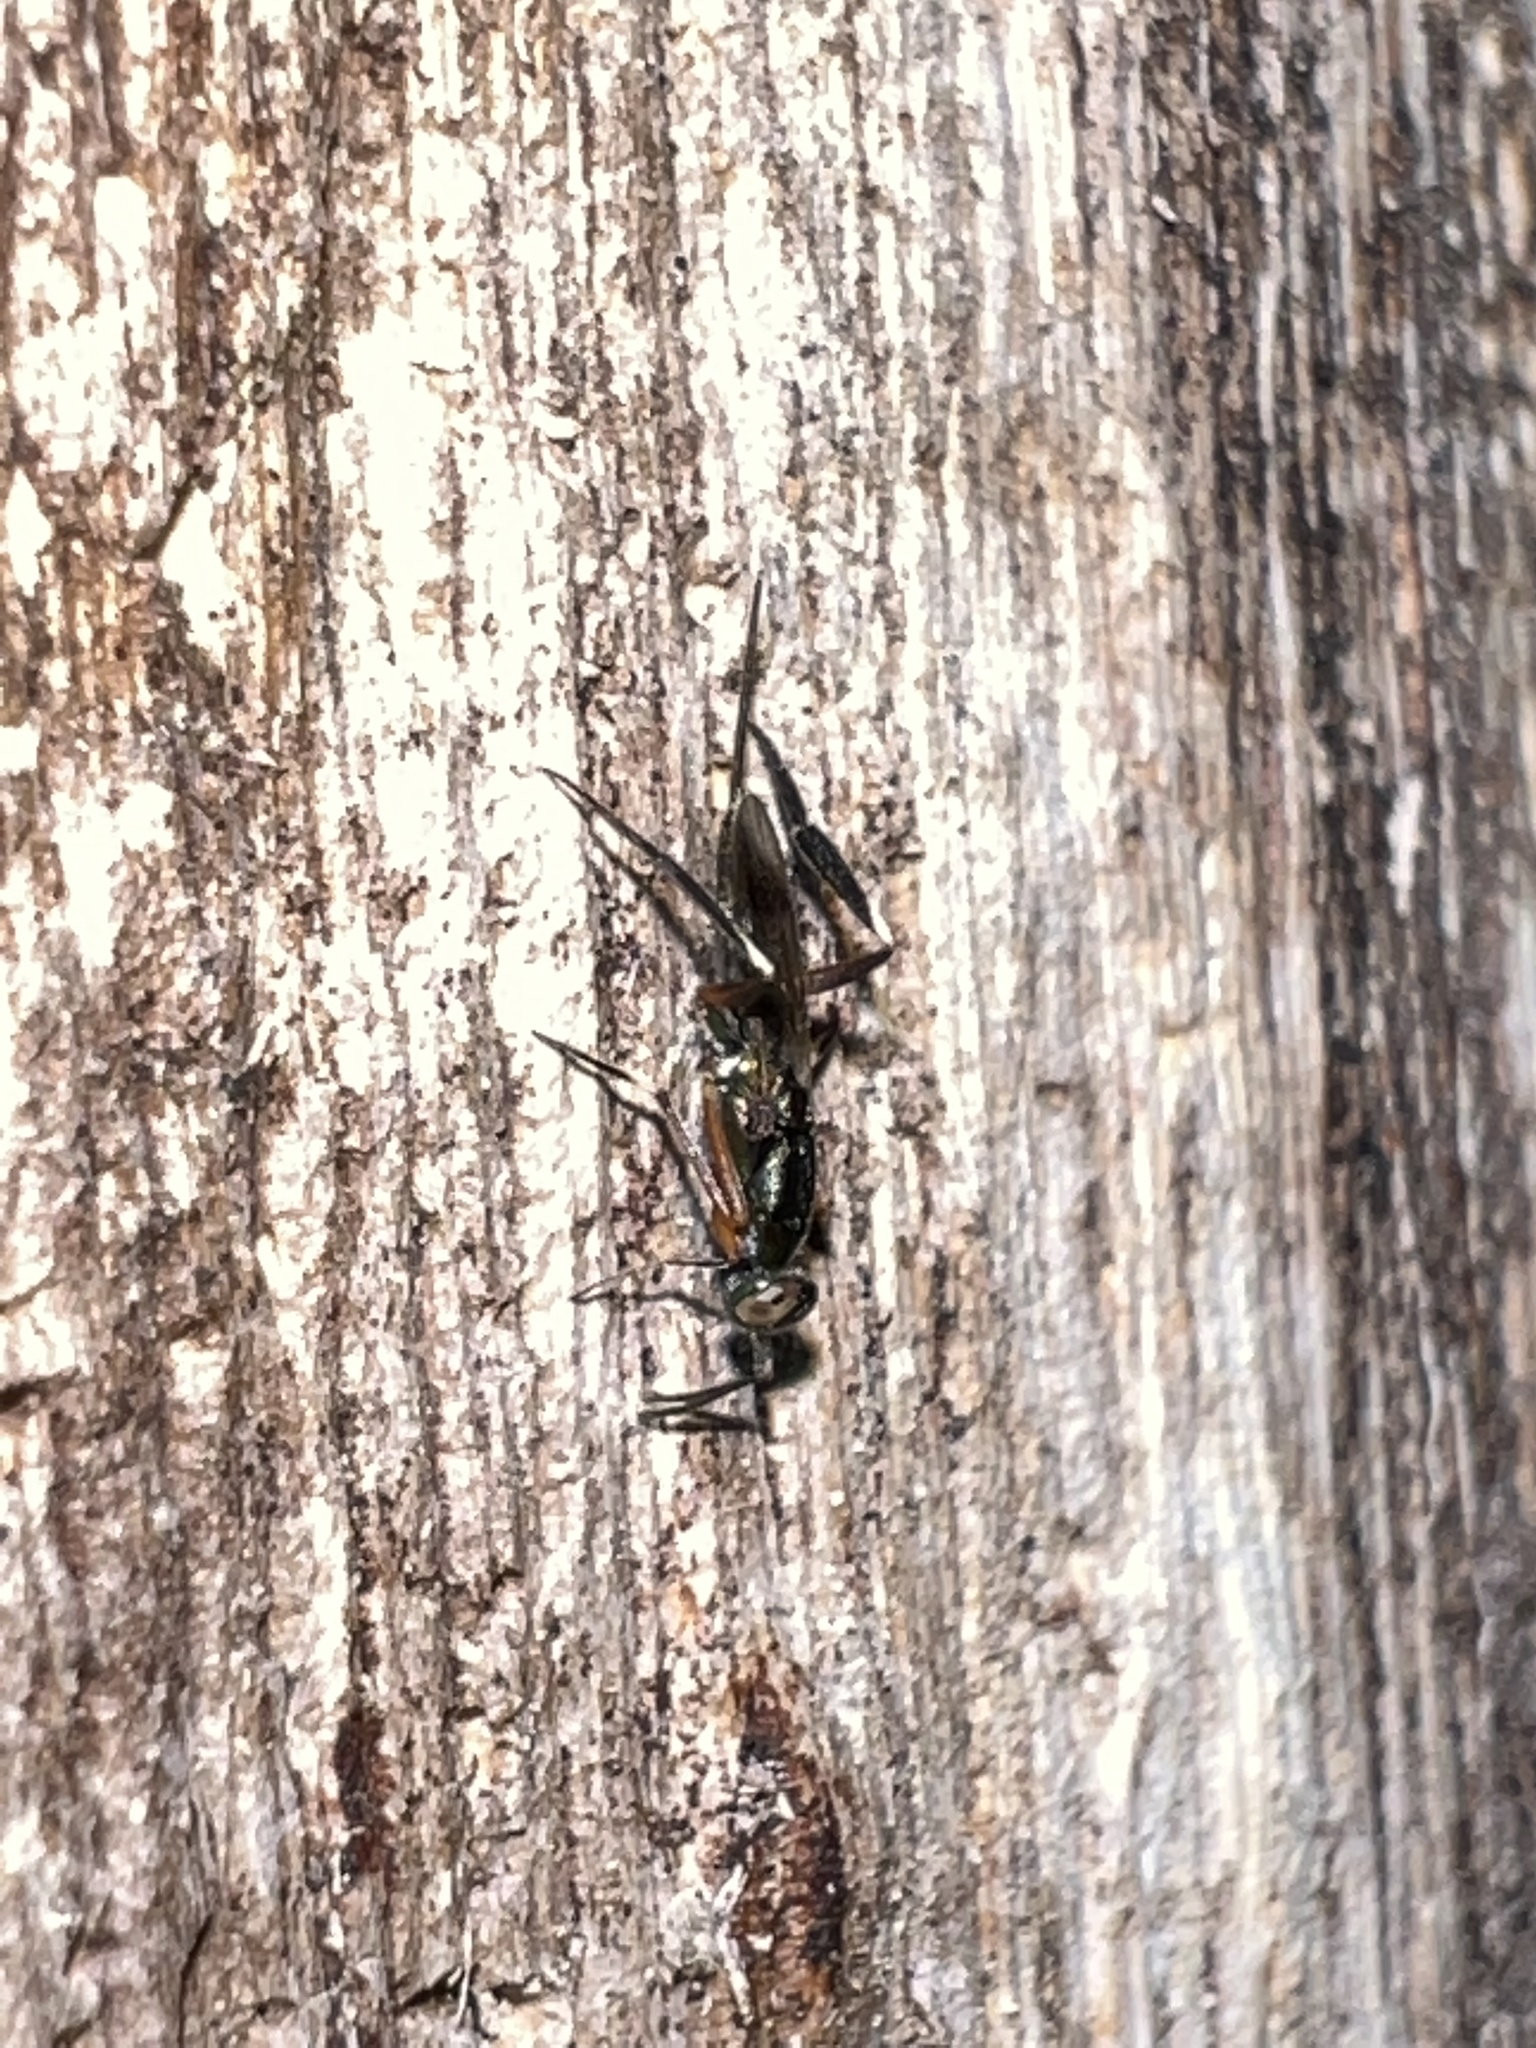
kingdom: Animalia
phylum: Arthropoda
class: Insecta
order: Hymenoptera
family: Eupelmidae
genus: Metapelma
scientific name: Metapelma spectabile
